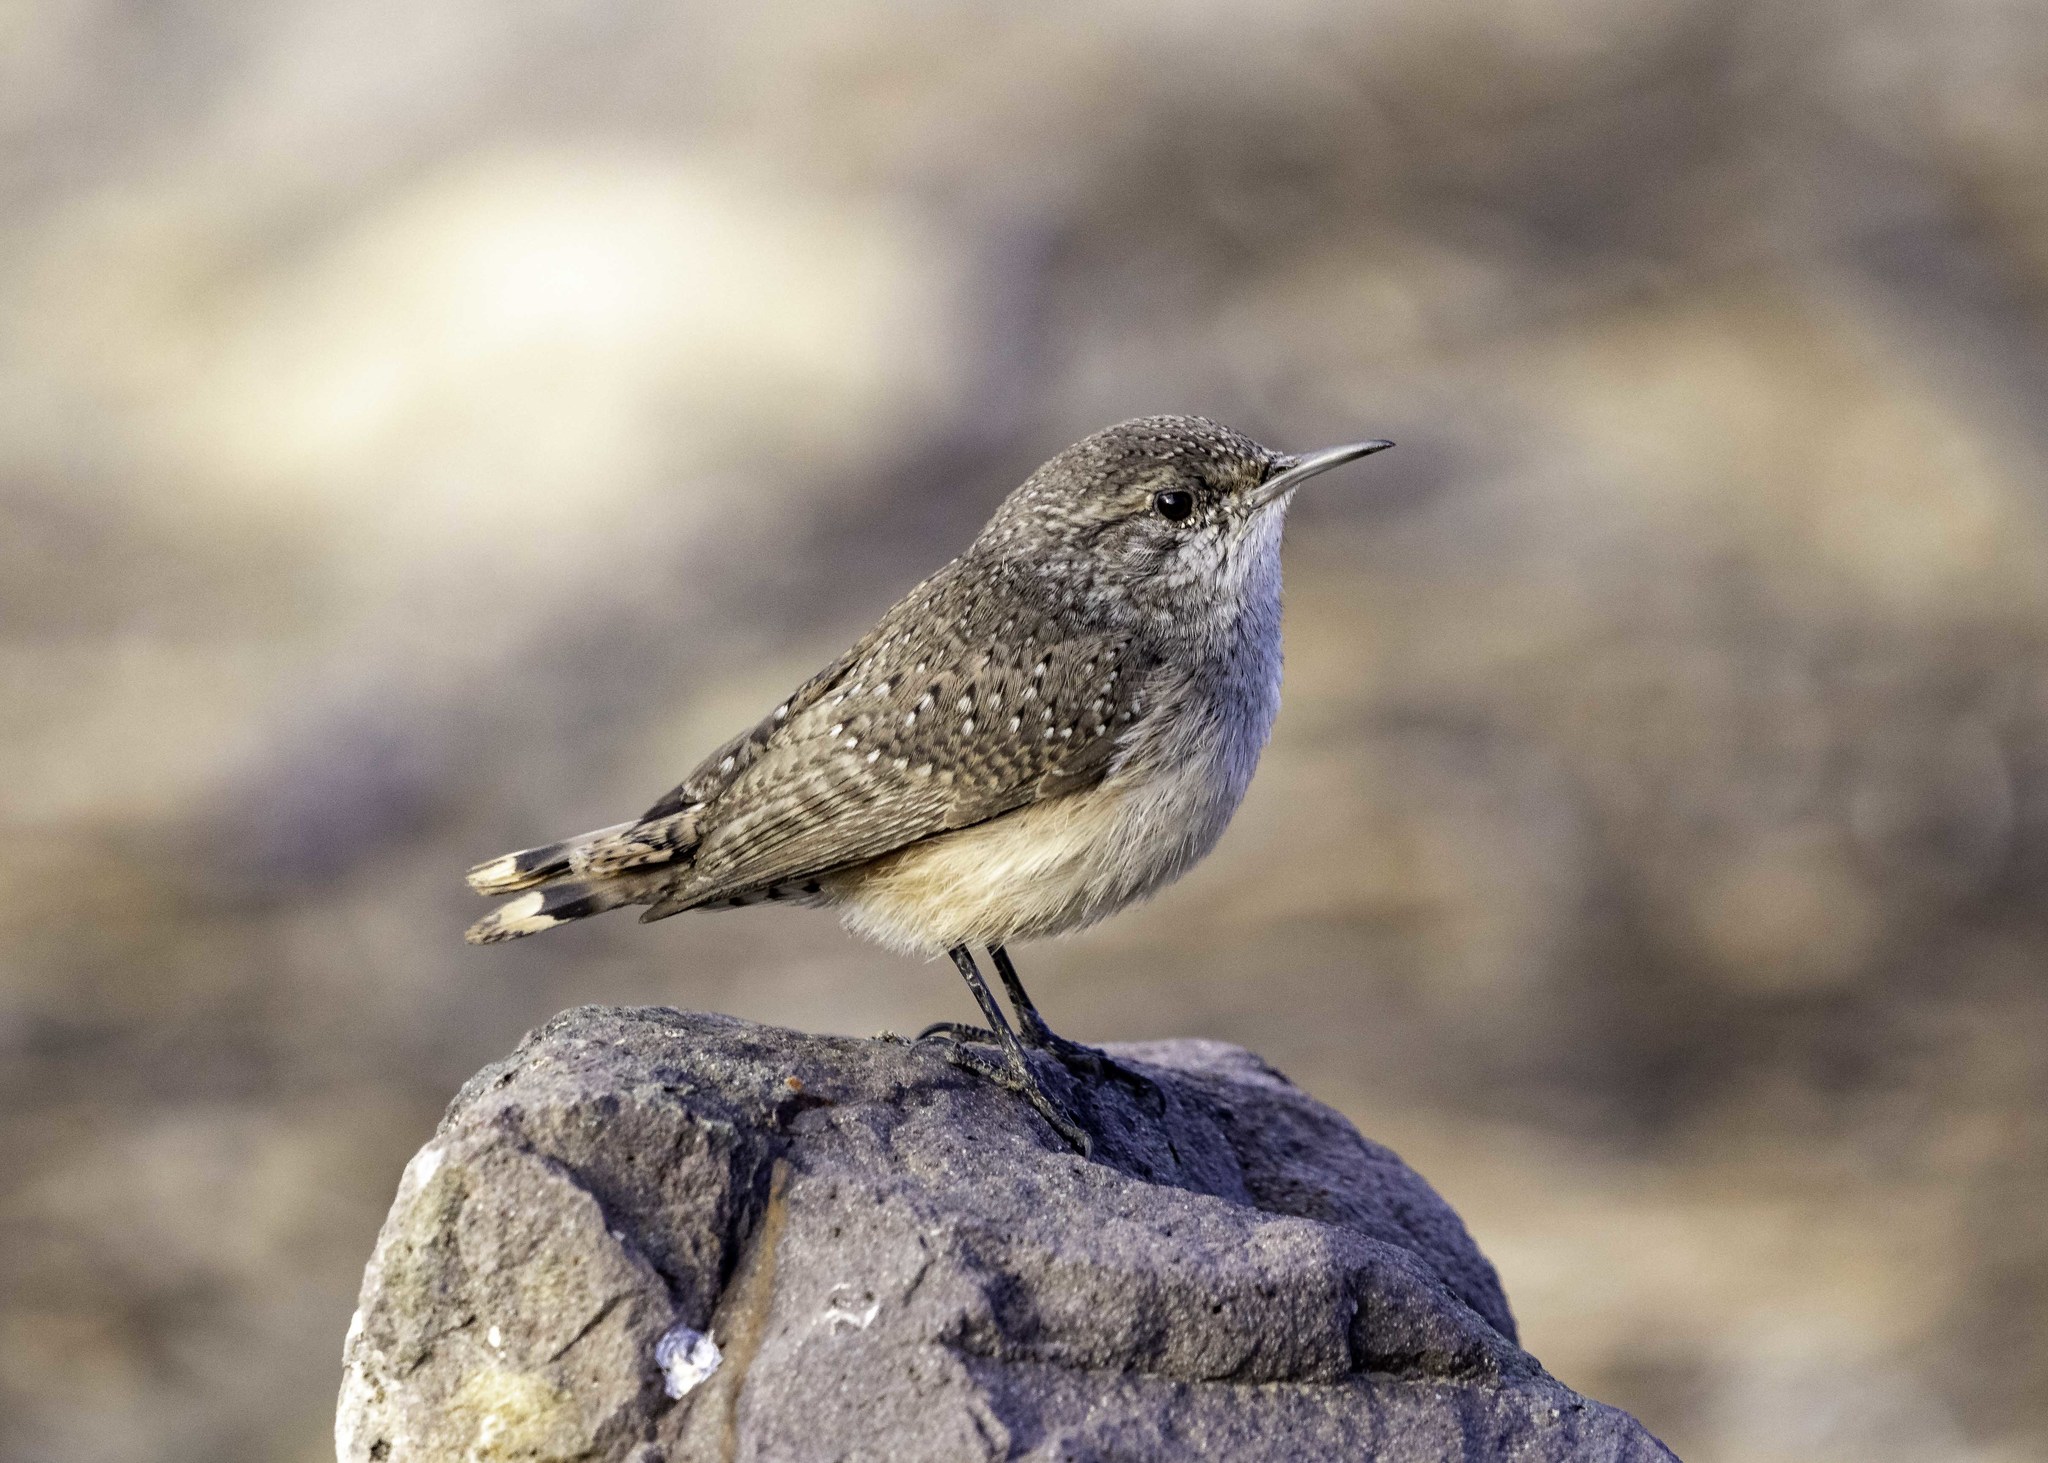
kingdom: Animalia
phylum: Chordata
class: Aves
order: Passeriformes
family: Troglodytidae
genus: Salpinctes
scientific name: Salpinctes obsoletus
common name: Rock wren
